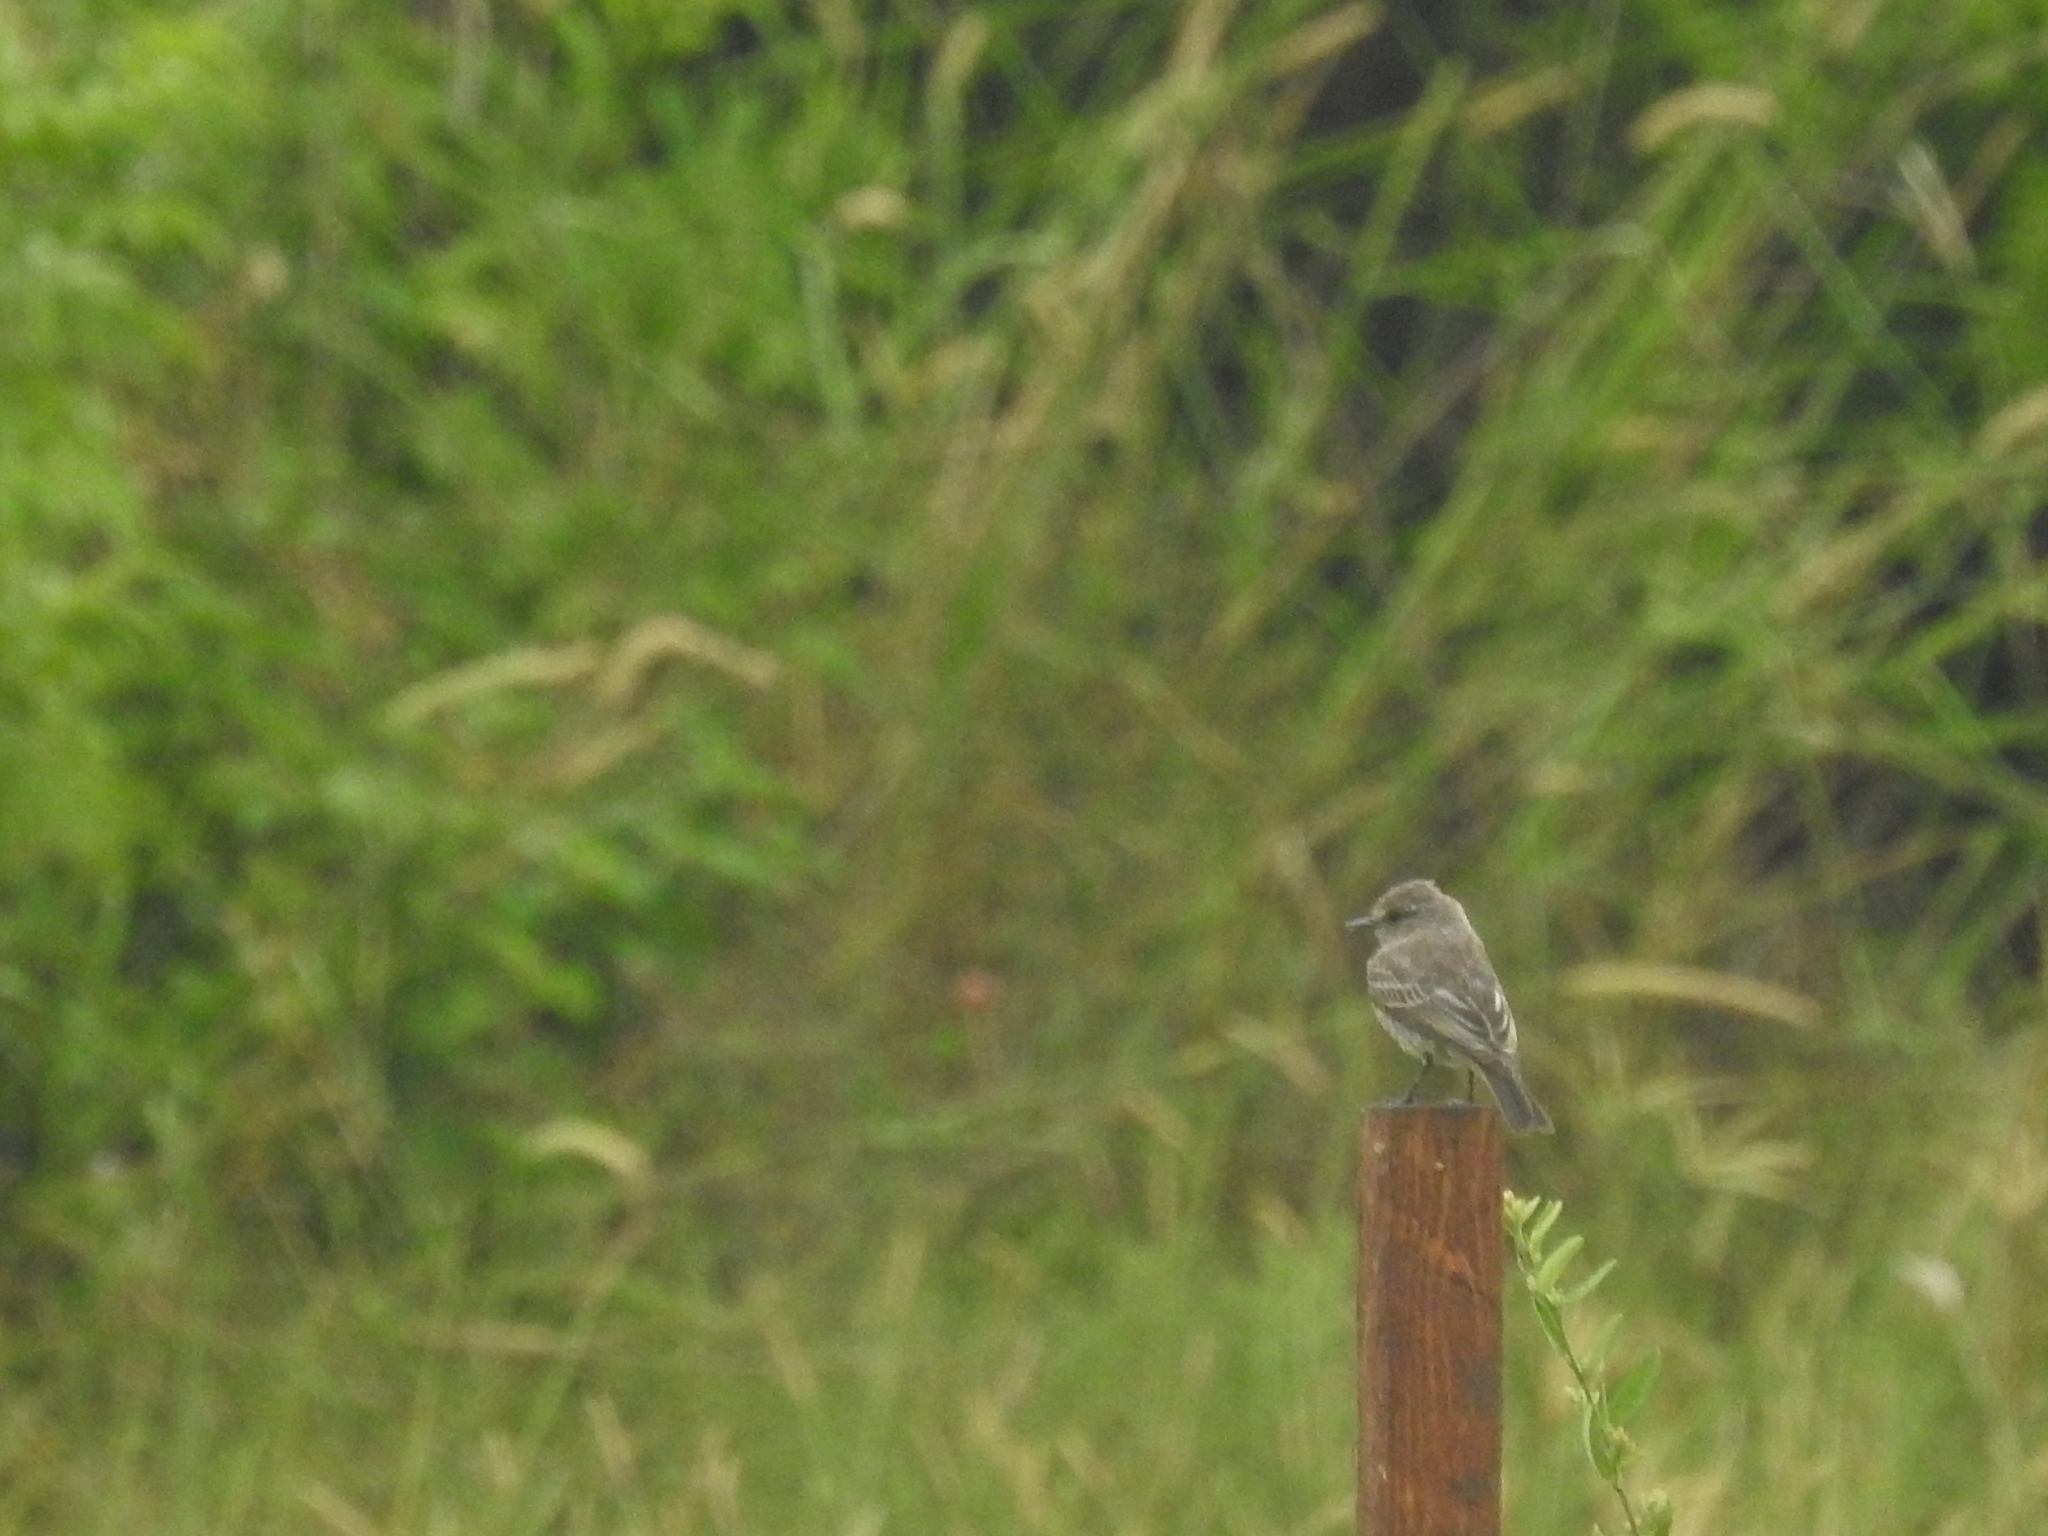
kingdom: Animalia
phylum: Chordata
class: Aves
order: Passeriformes
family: Tyrannidae
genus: Pyrocephalus
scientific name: Pyrocephalus rubinus
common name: Vermilion flycatcher
